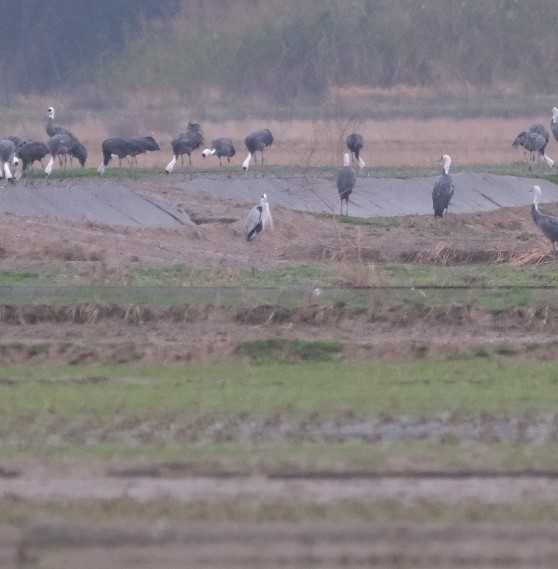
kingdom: Animalia
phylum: Chordata
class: Aves
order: Pelecaniformes
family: Ardeidae
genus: Ardea
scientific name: Ardea cinerea
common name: Grey heron
